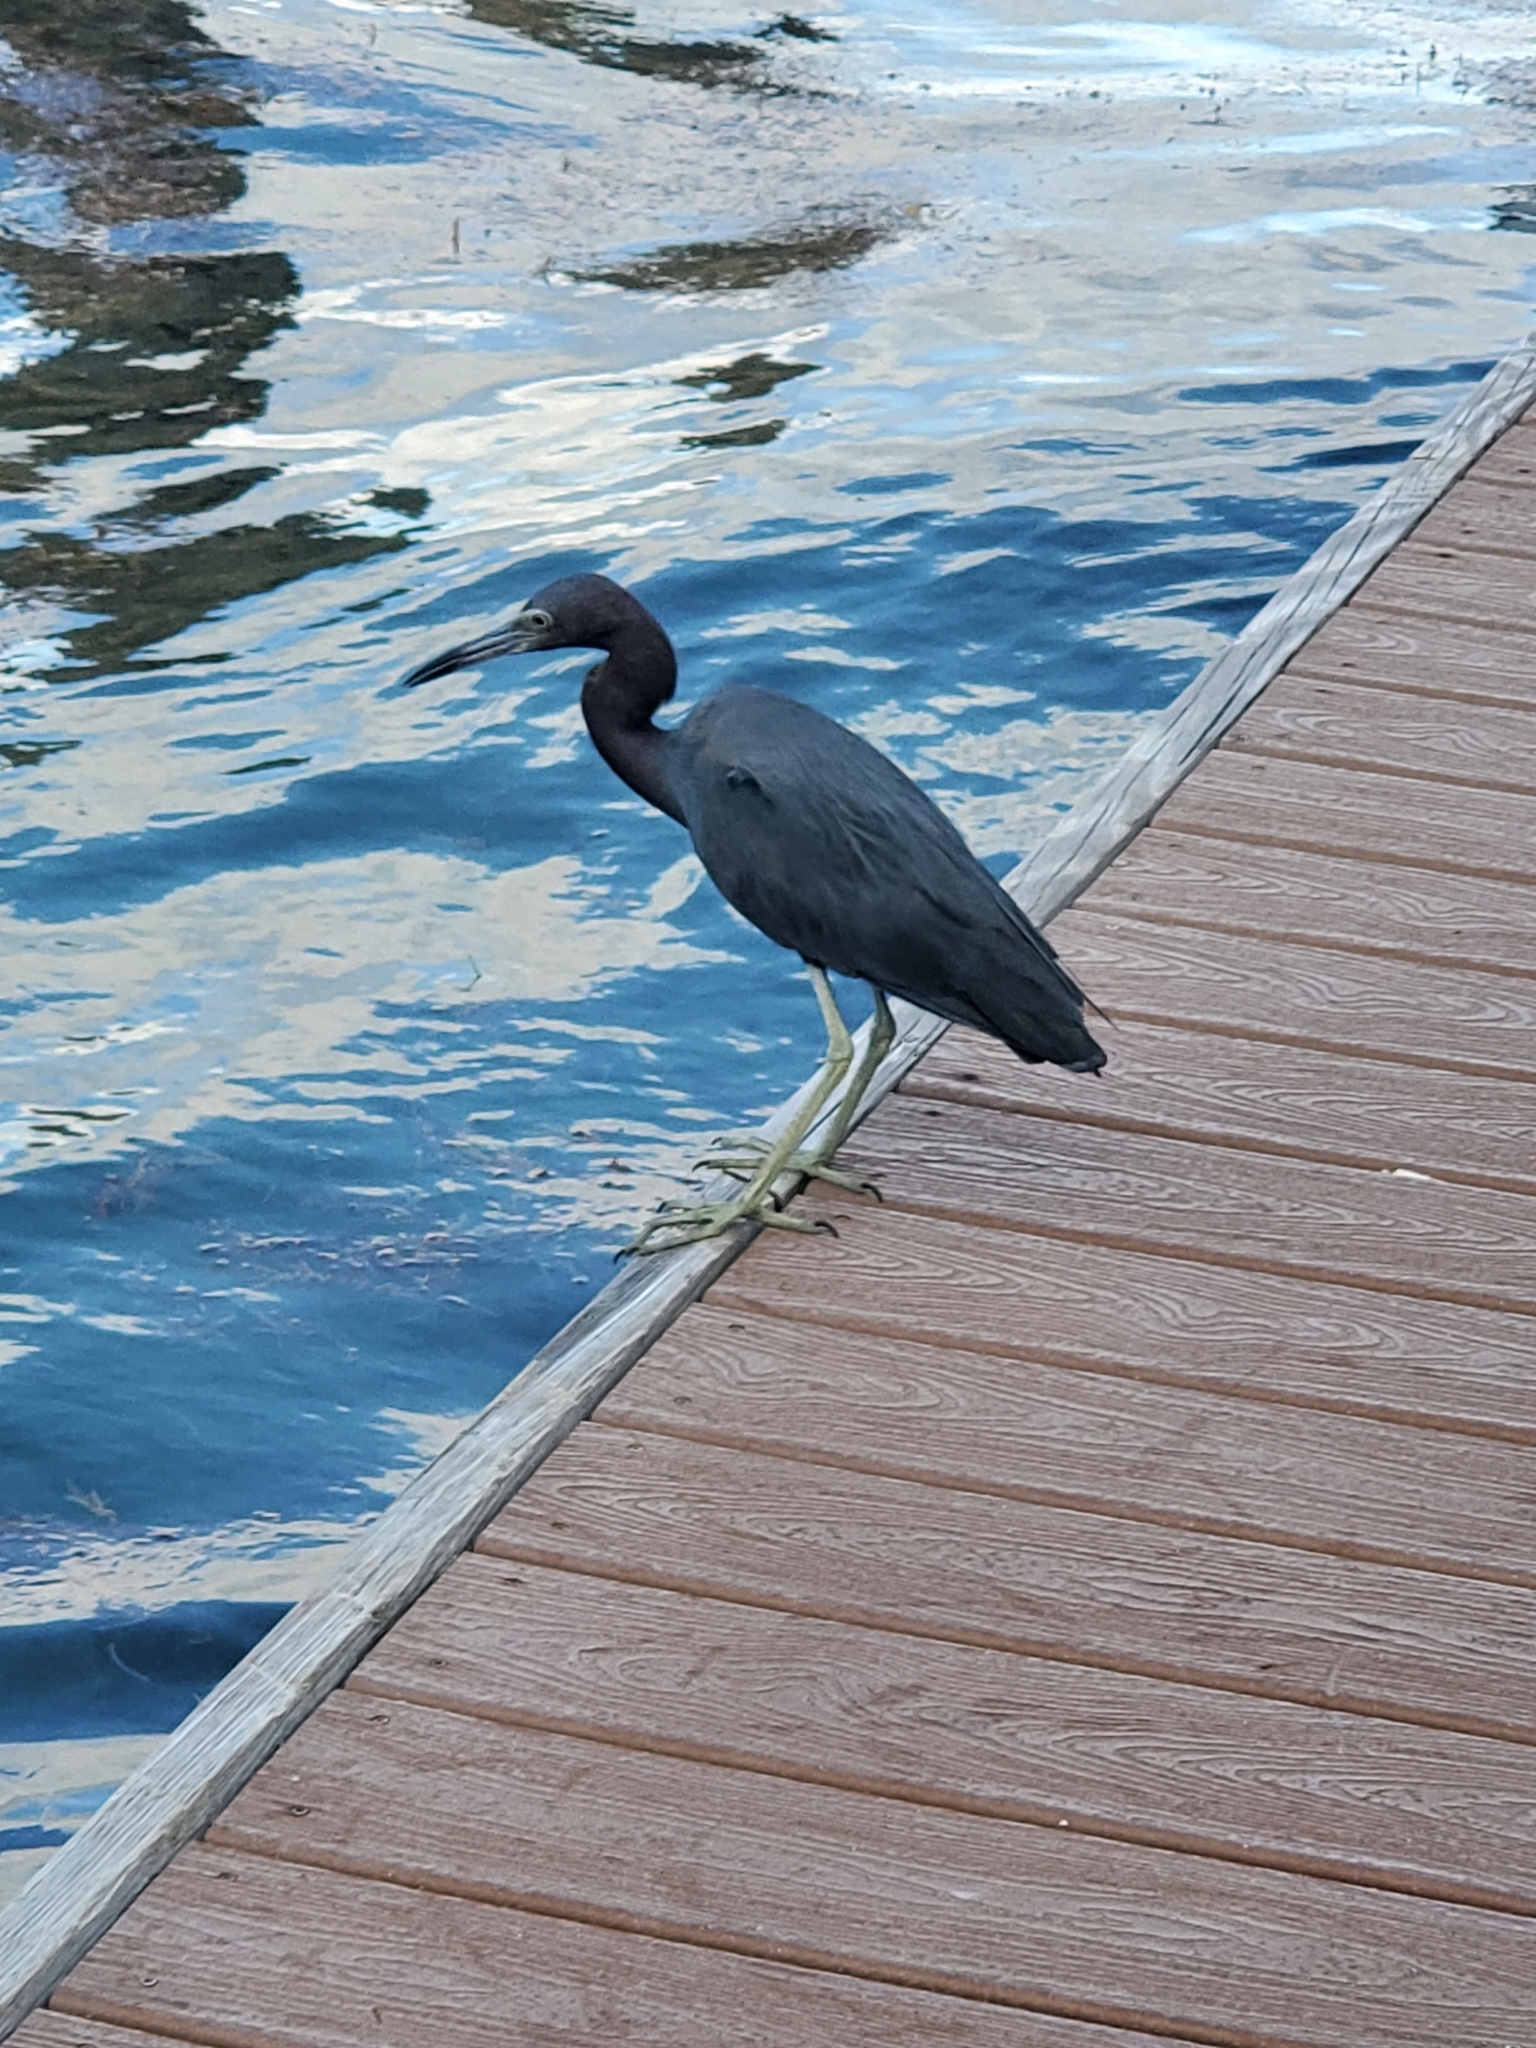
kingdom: Animalia
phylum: Chordata
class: Aves
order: Pelecaniformes
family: Ardeidae
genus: Egretta
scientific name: Egretta caerulea
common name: Little blue heron
